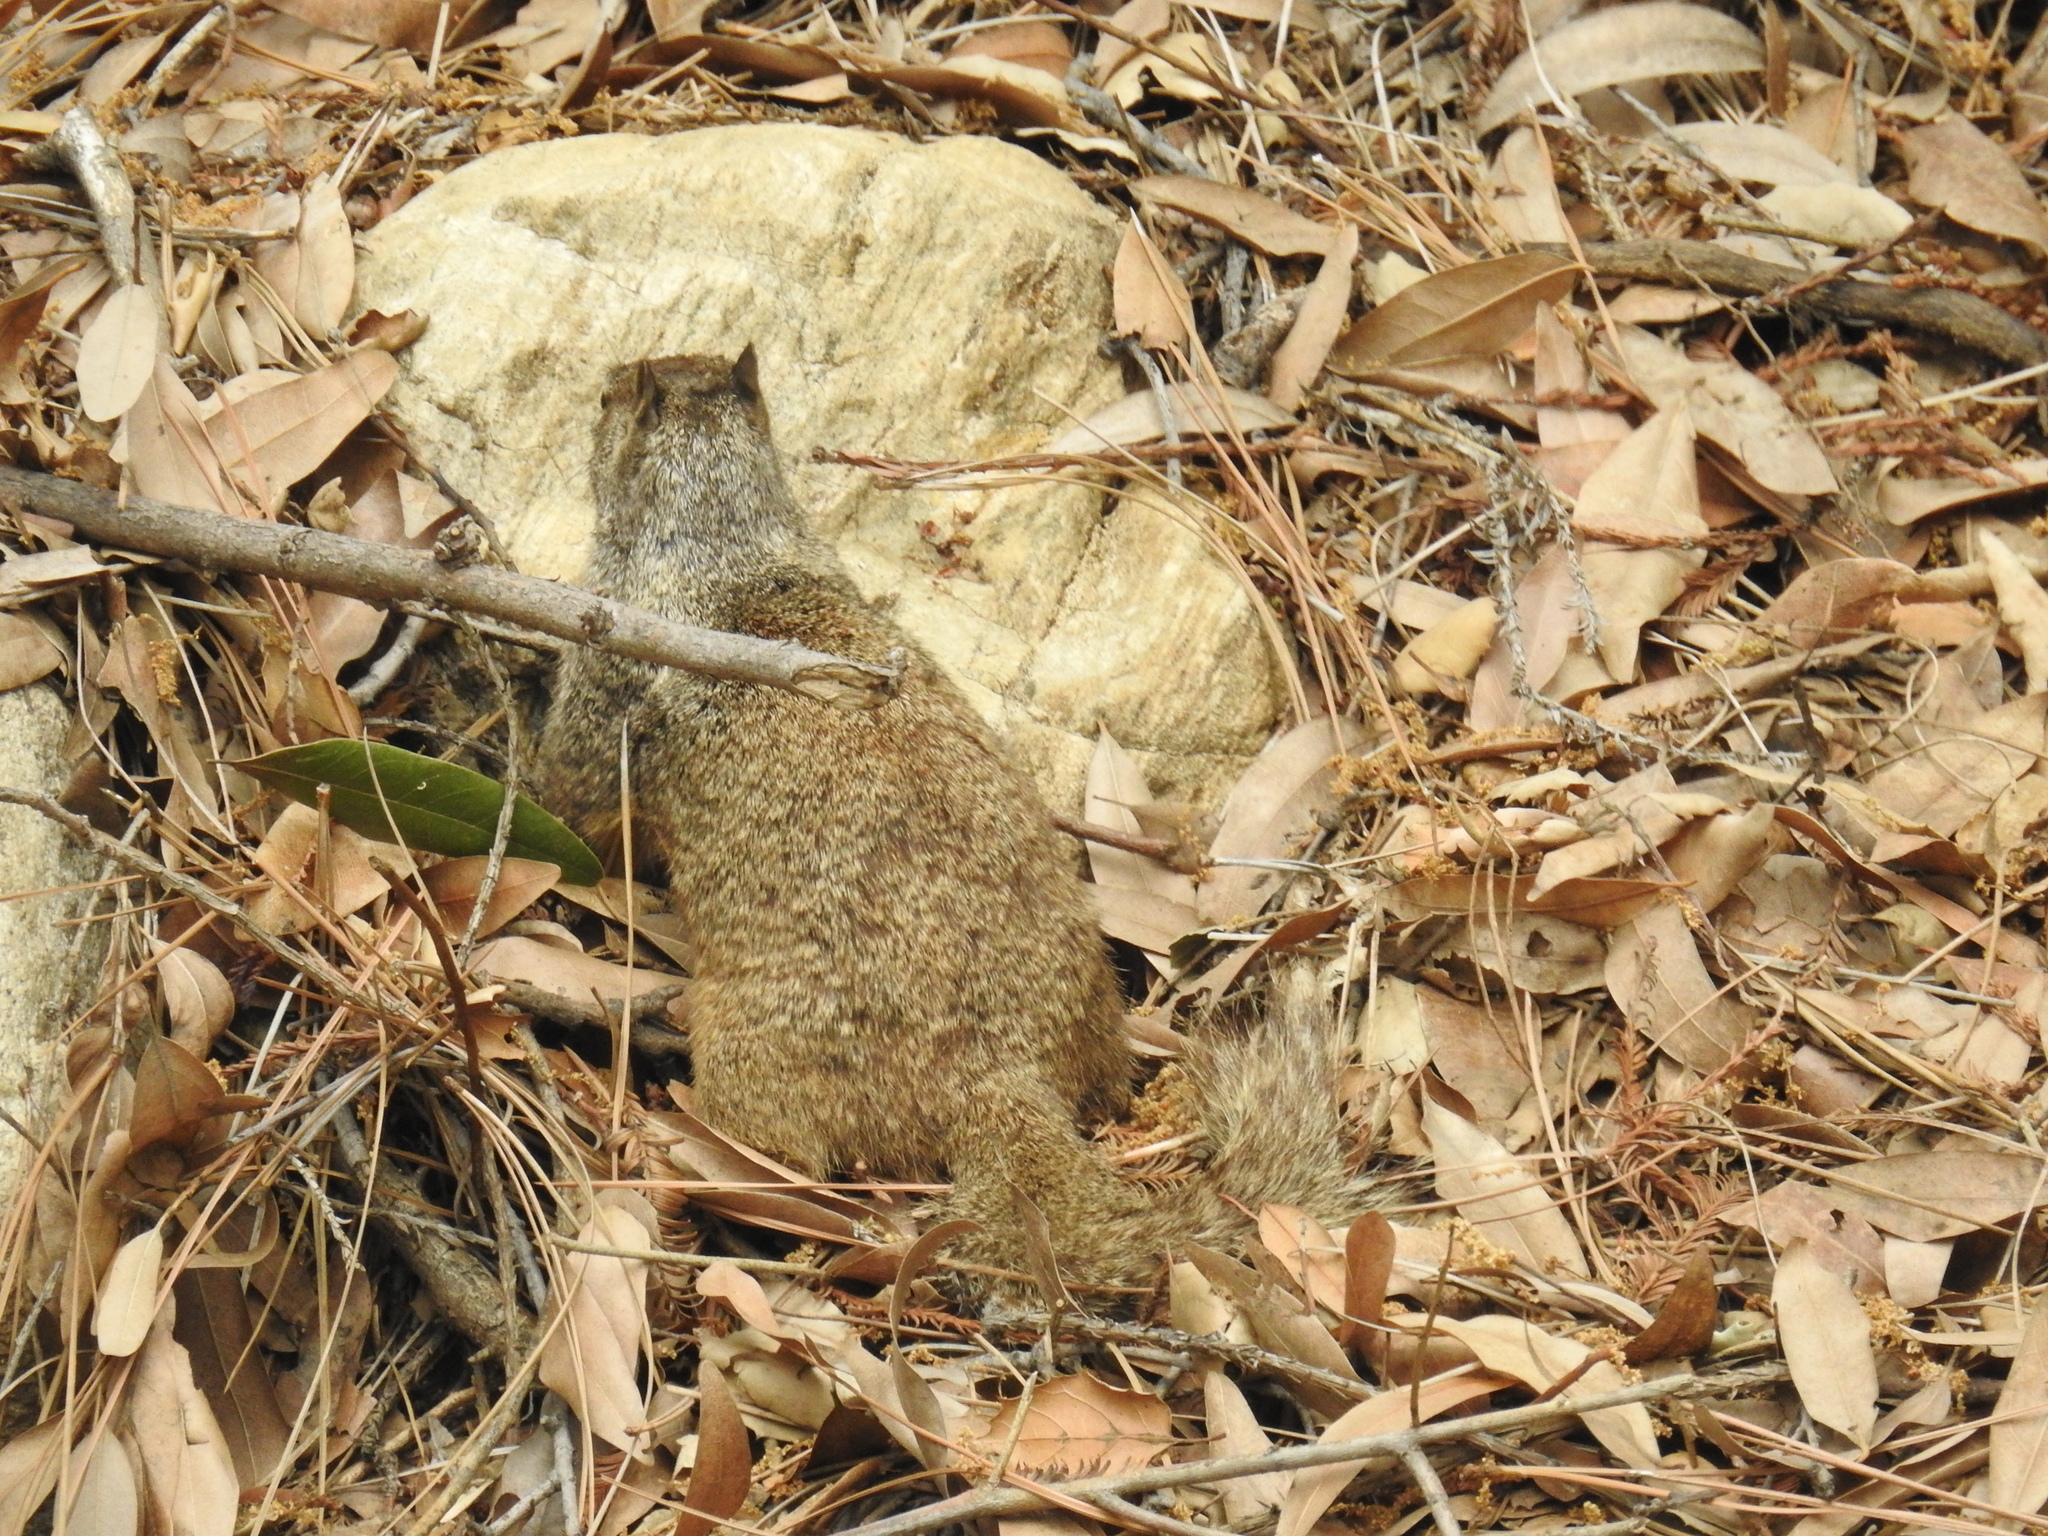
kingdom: Animalia
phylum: Chordata
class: Mammalia
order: Rodentia
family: Sciuridae
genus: Otospermophilus
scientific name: Otospermophilus beecheyi
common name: California ground squirrel
